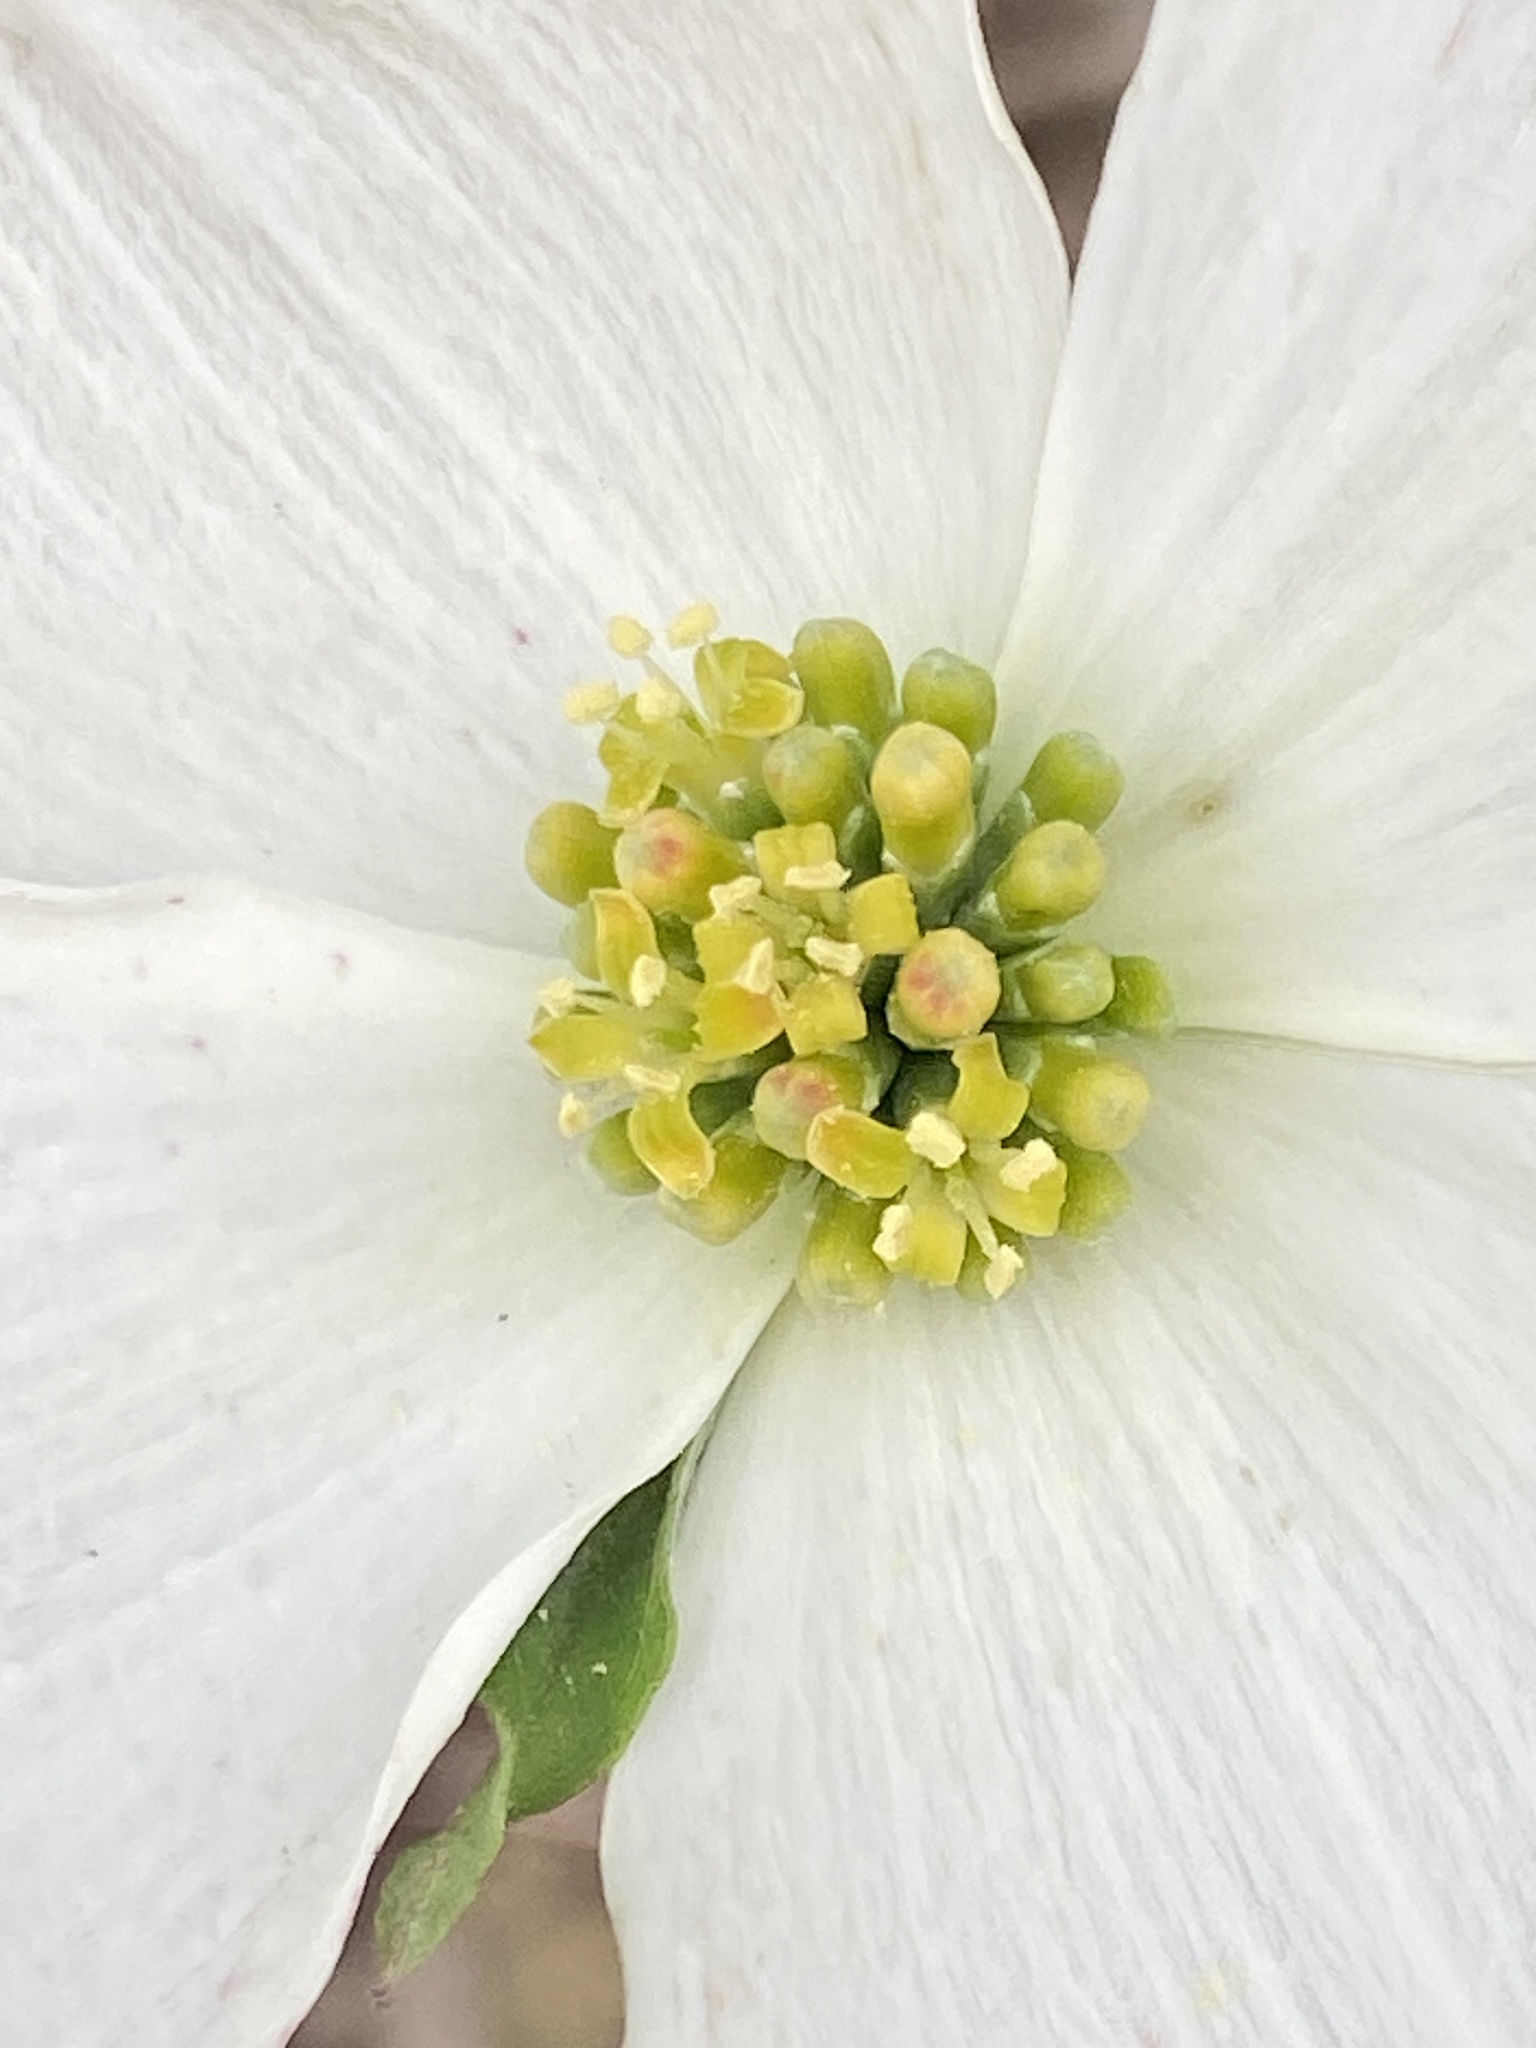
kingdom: Plantae
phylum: Tracheophyta
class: Magnoliopsida
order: Cornales
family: Cornaceae
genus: Cornus
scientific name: Cornus florida
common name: Flowering dogwood
